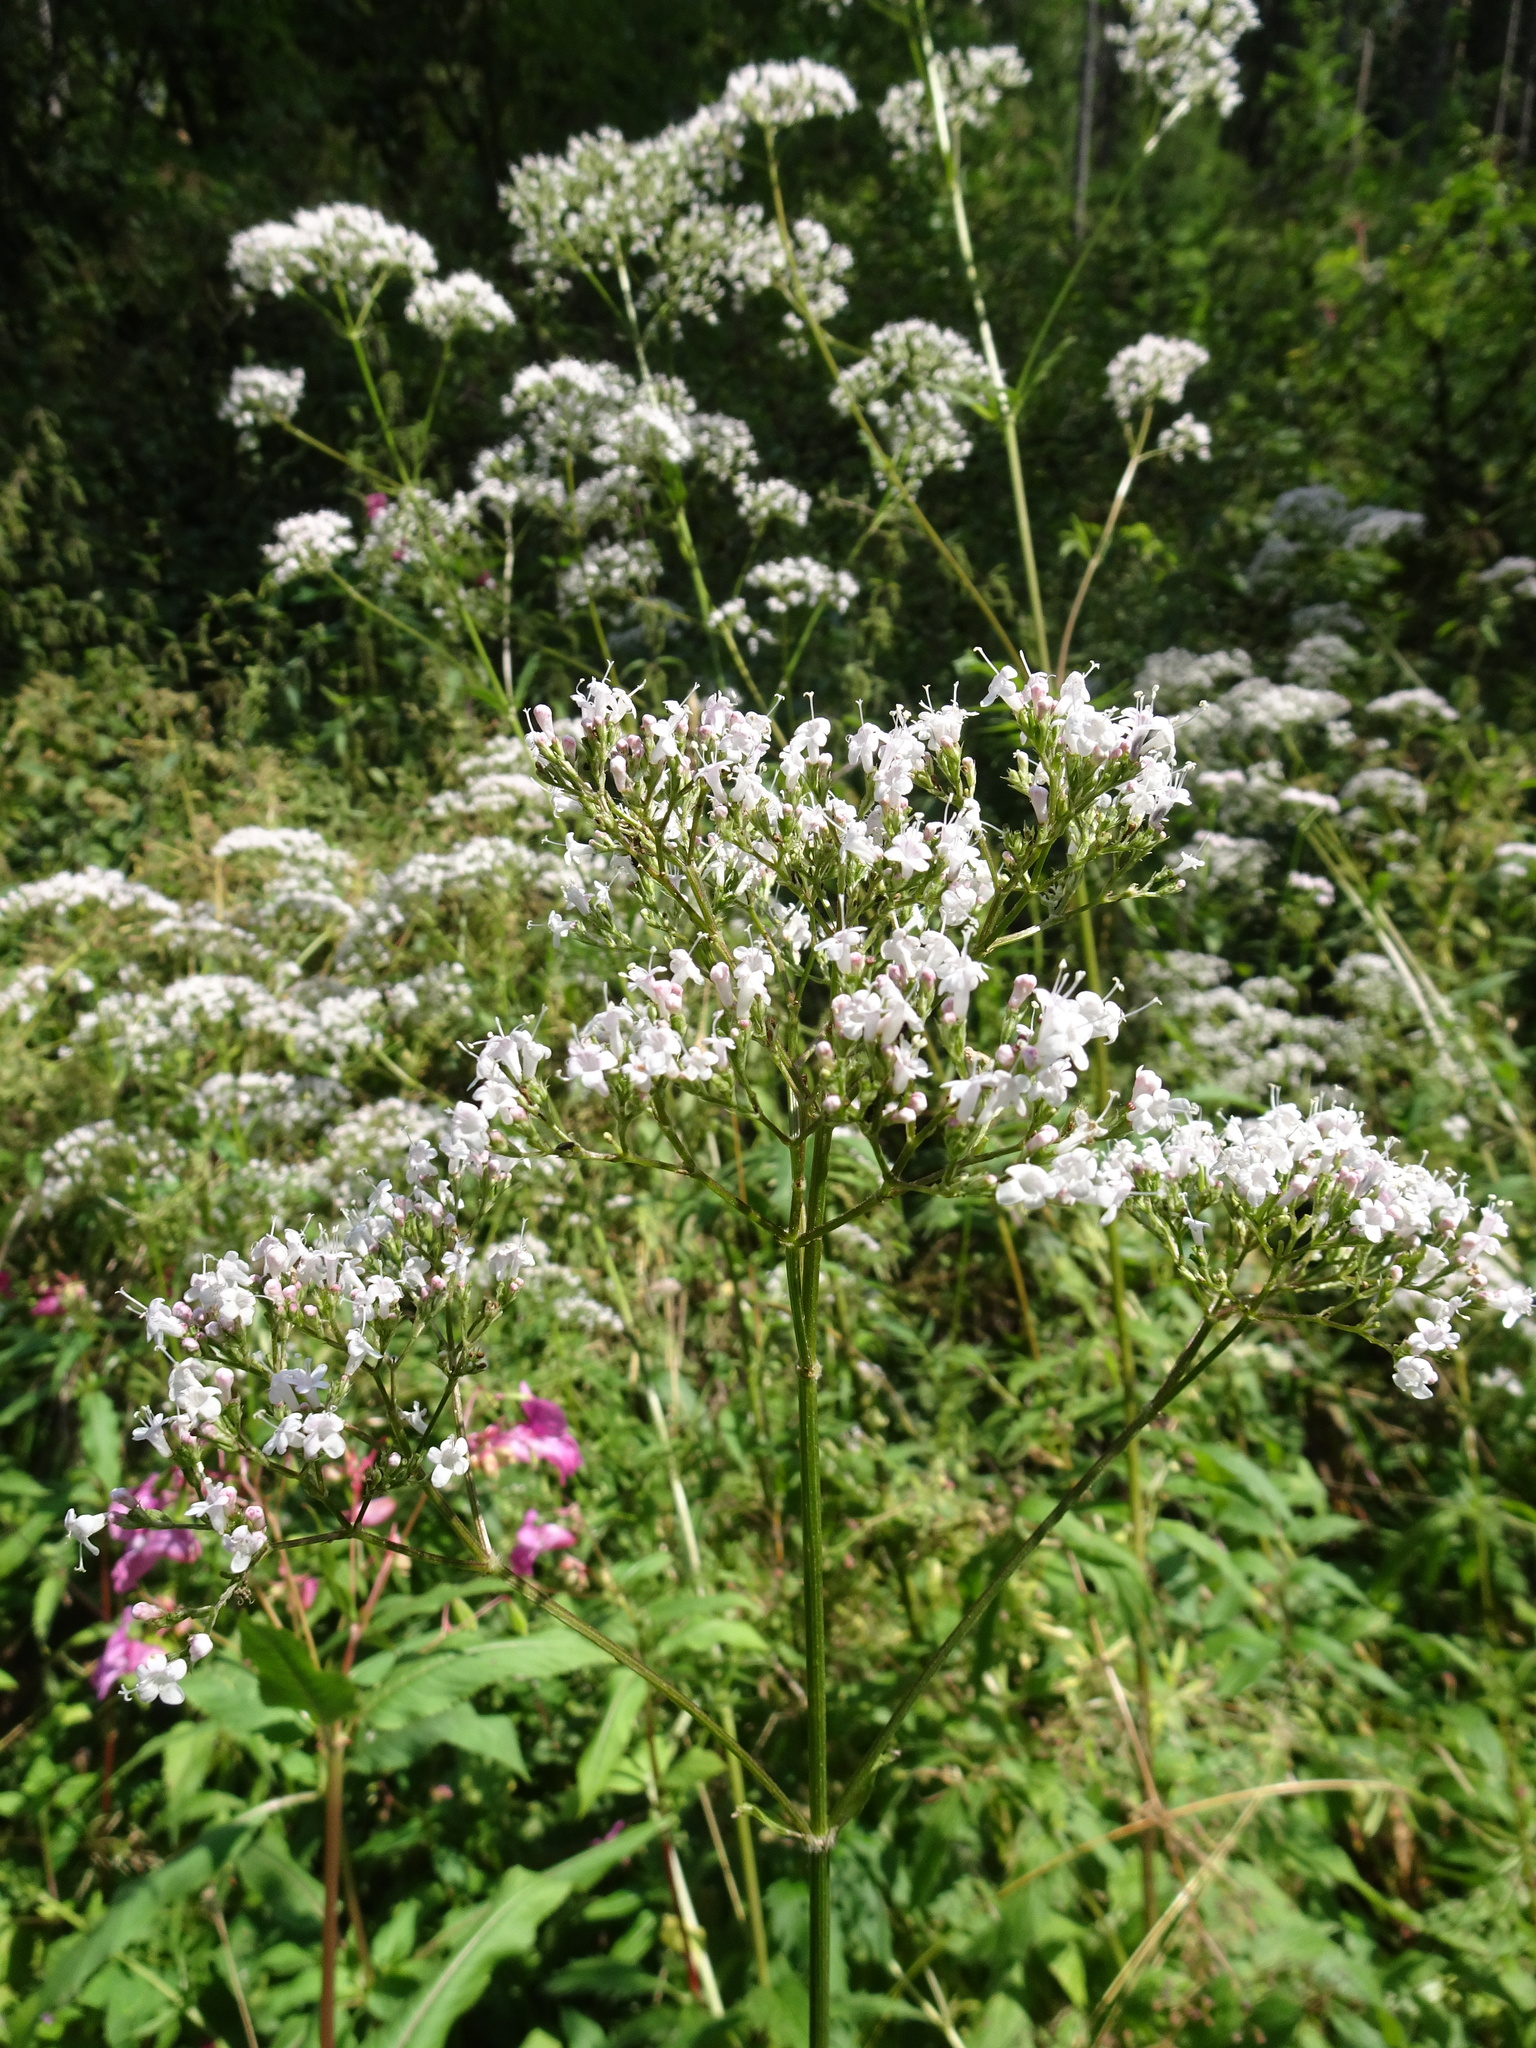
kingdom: Plantae
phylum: Tracheophyta
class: Magnoliopsida
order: Dipsacales
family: Caprifoliaceae
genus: Valeriana
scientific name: Valeriana officinalis
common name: Common valerian
